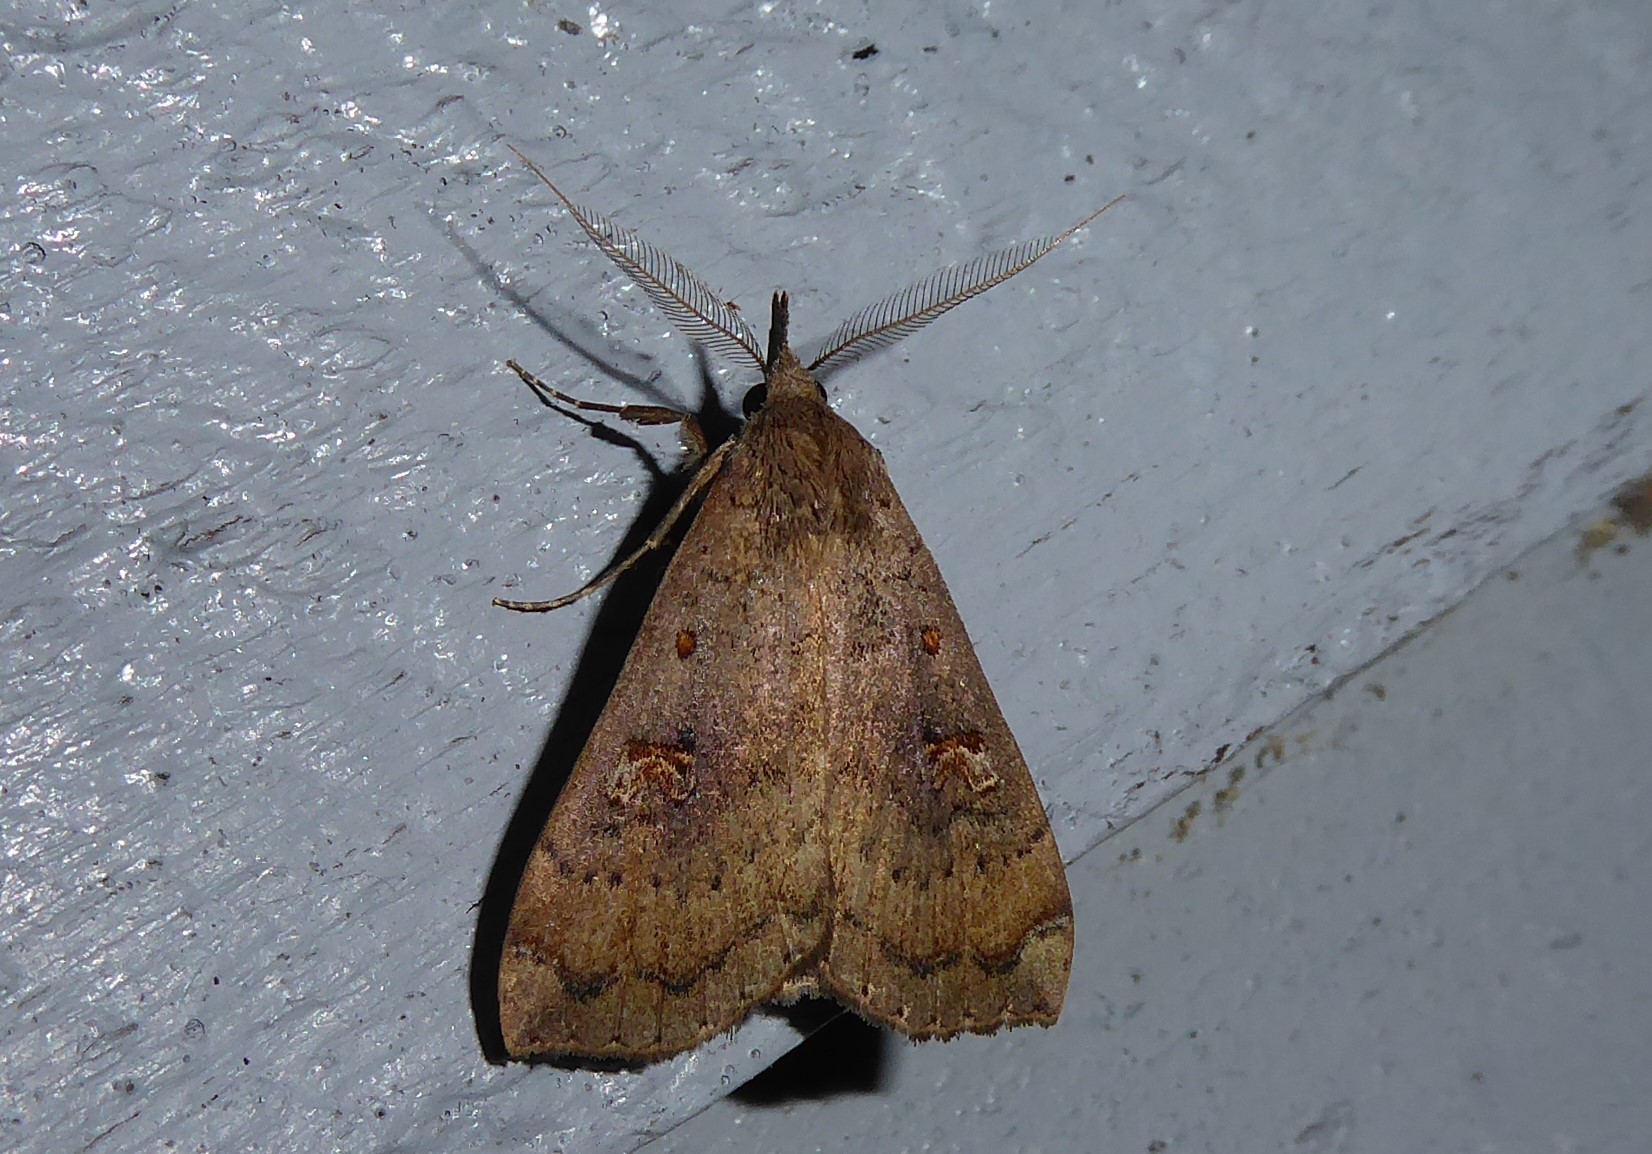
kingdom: Animalia
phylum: Arthropoda
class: Insecta
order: Lepidoptera
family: Erebidae
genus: Rhapsa
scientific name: Rhapsa scotosialis
